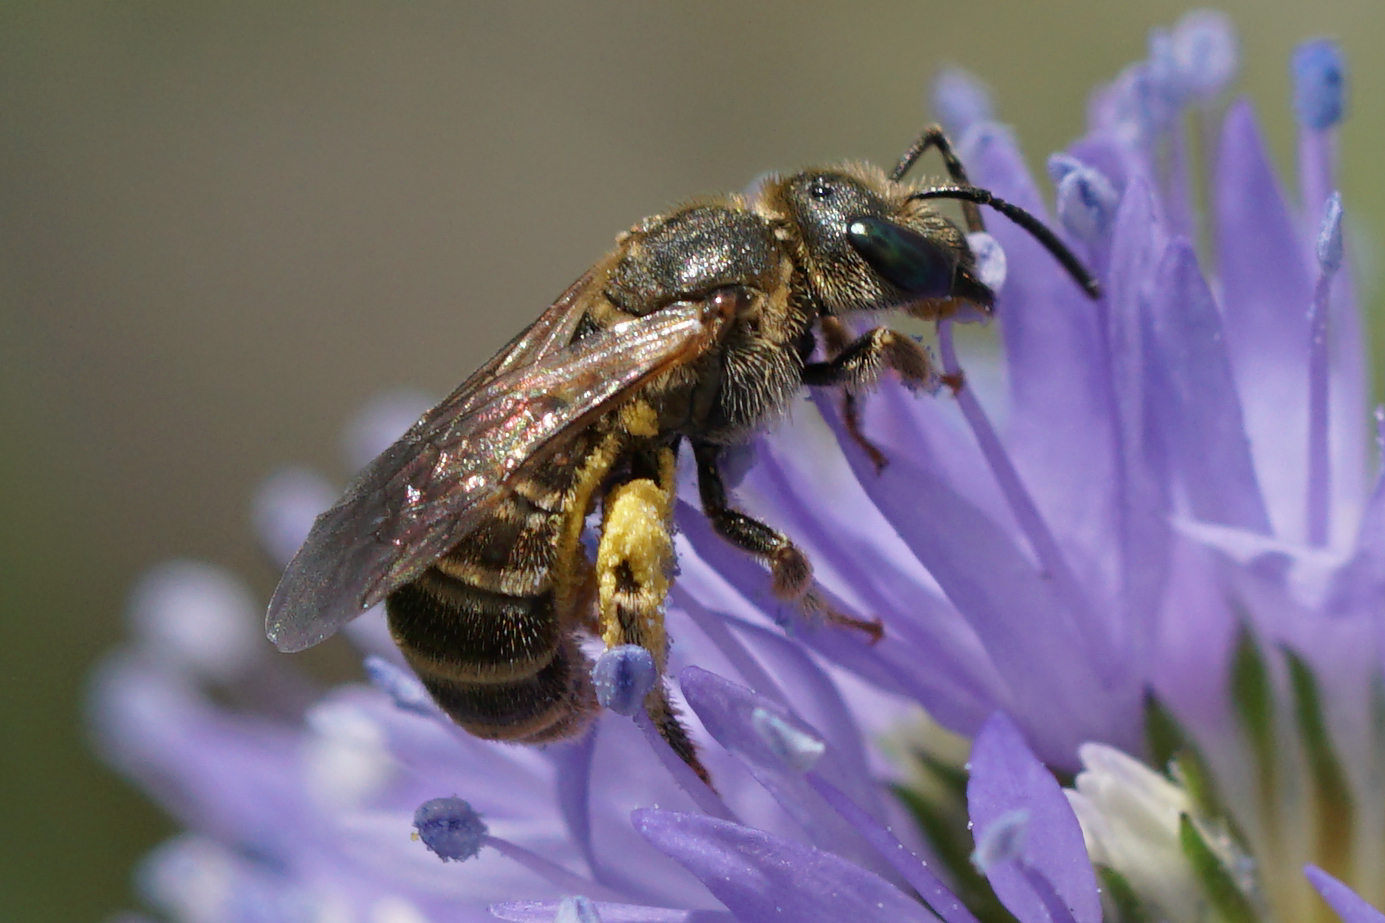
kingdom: Animalia
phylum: Arthropoda
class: Insecta
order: Hymenoptera
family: Halictidae
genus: Halictus
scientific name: Halictus confusus
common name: Southern bronze furrow bee
